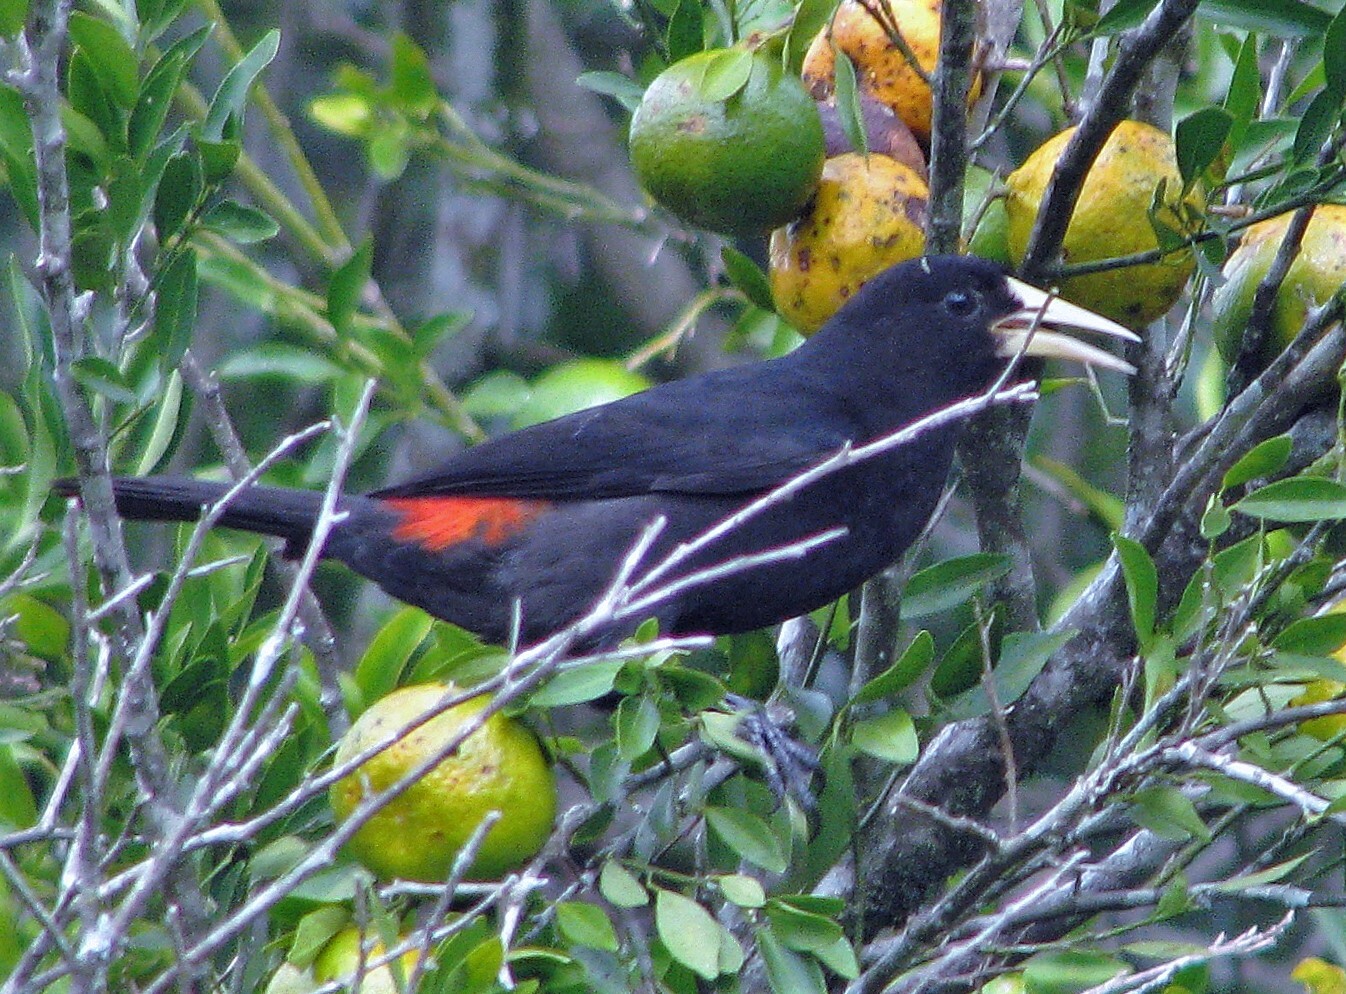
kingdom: Animalia
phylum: Chordata
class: Aves
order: Passeriformes
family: Icteridae
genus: Cacicus
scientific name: Cacicus haemorrhous
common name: Red-rumped cacique
